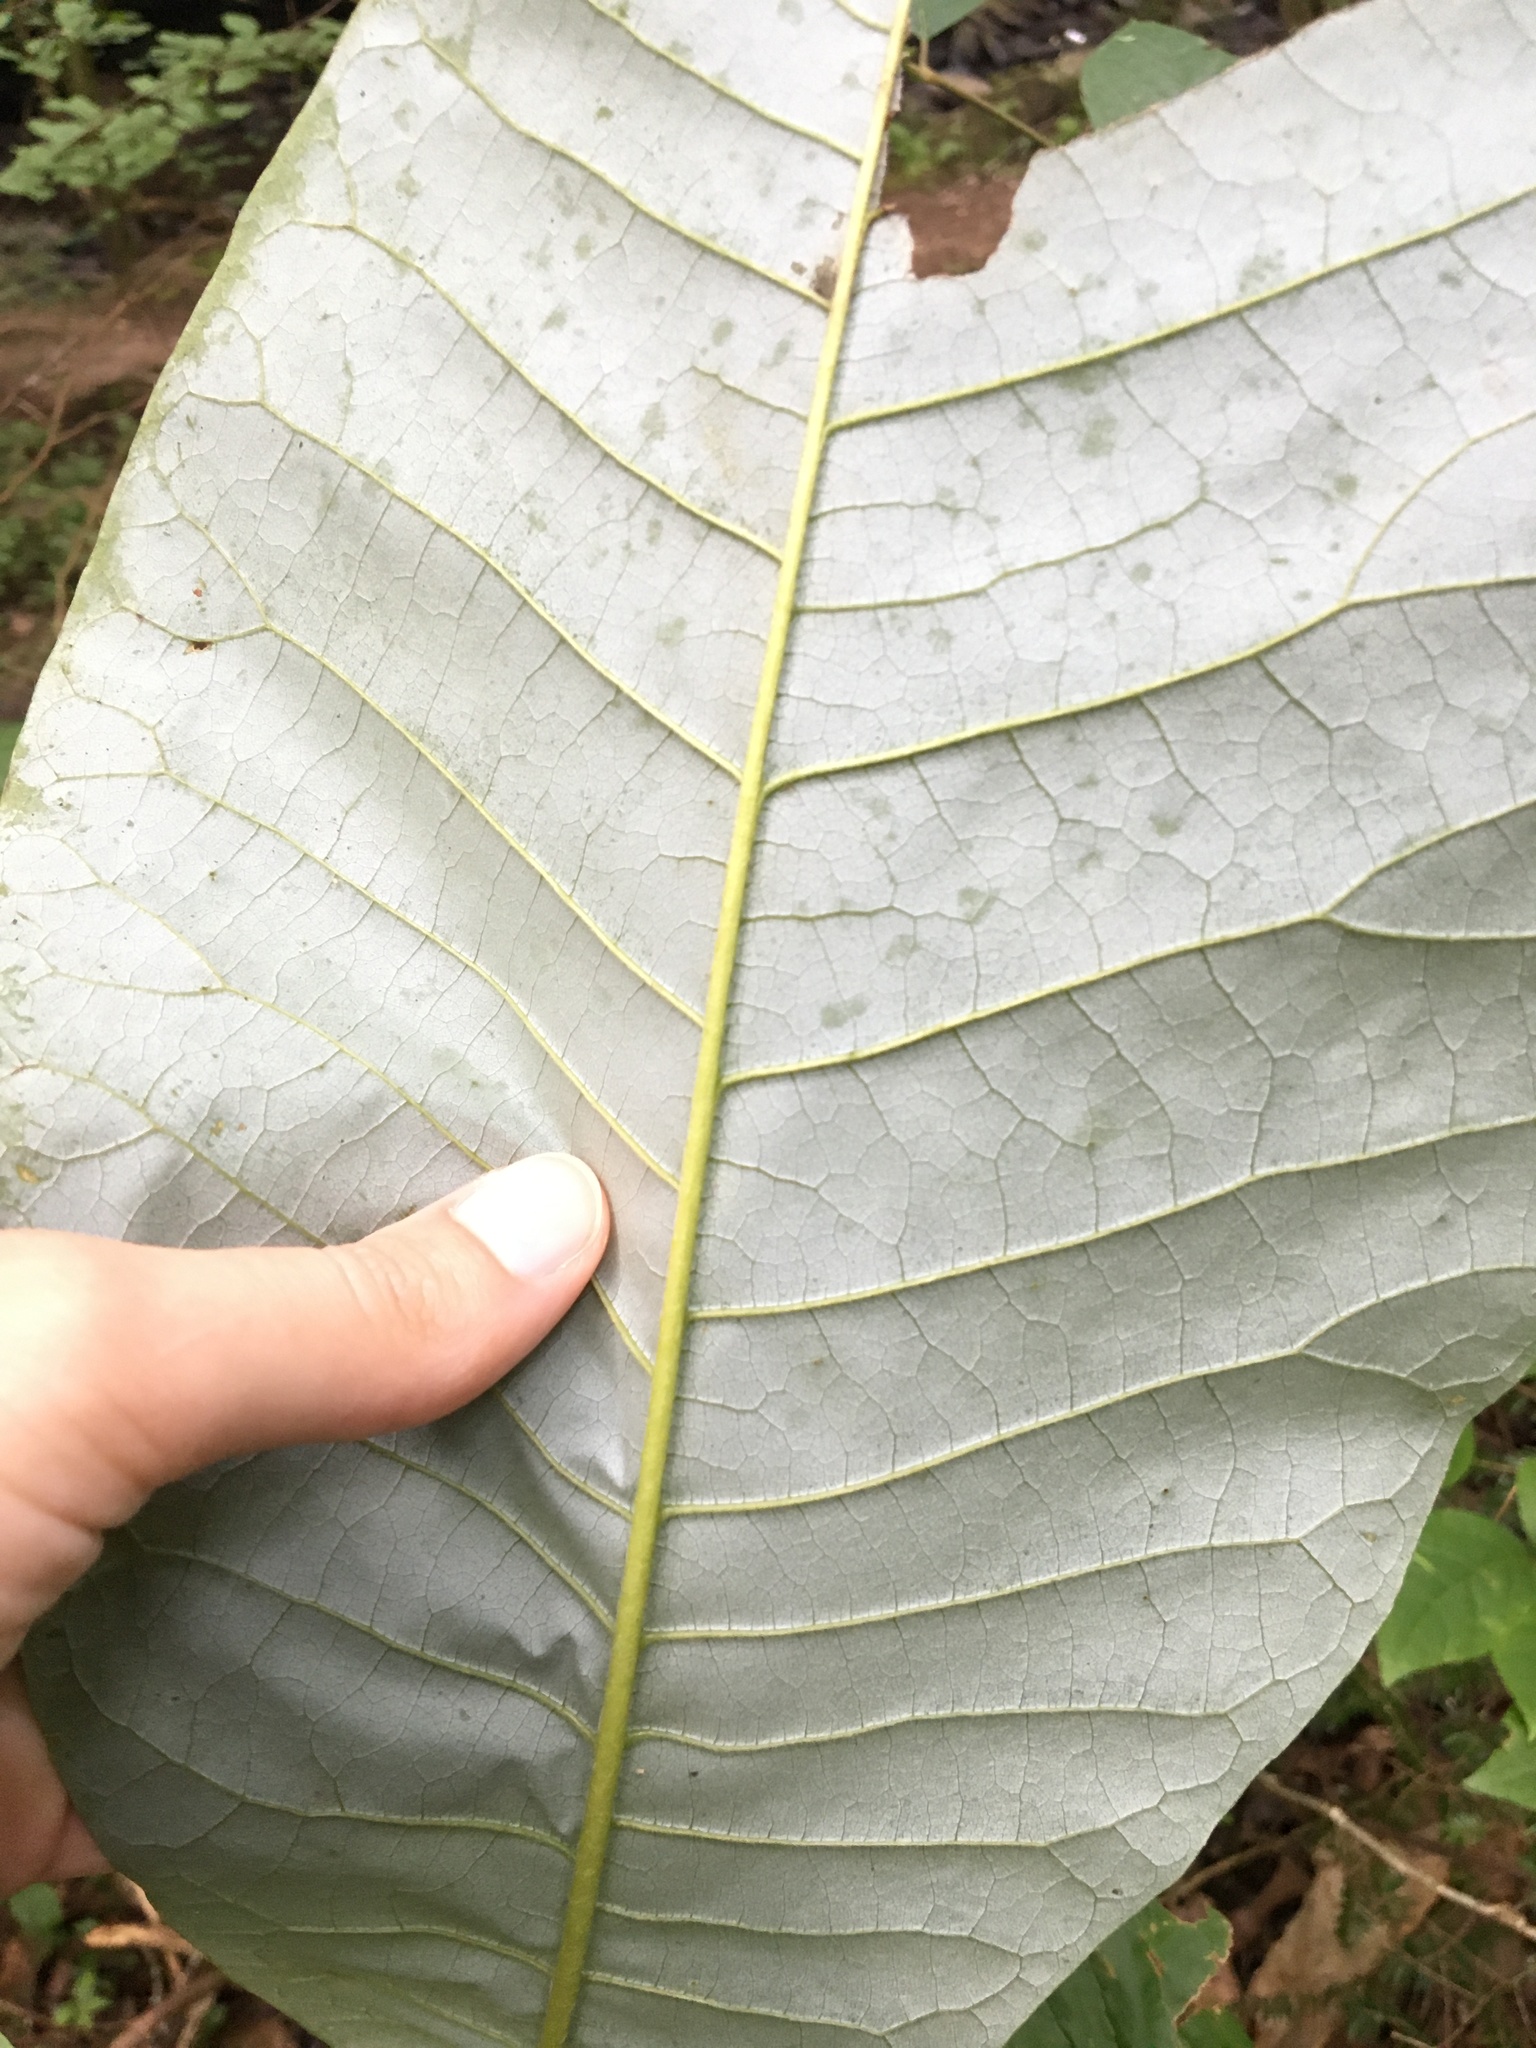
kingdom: Plantae
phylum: Tracheophyta
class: Magnoliopsida
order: Magnoliales
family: Magnoliaceae
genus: Magnolia
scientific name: Magnolia macrophylla
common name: Big-leaf magnolia
